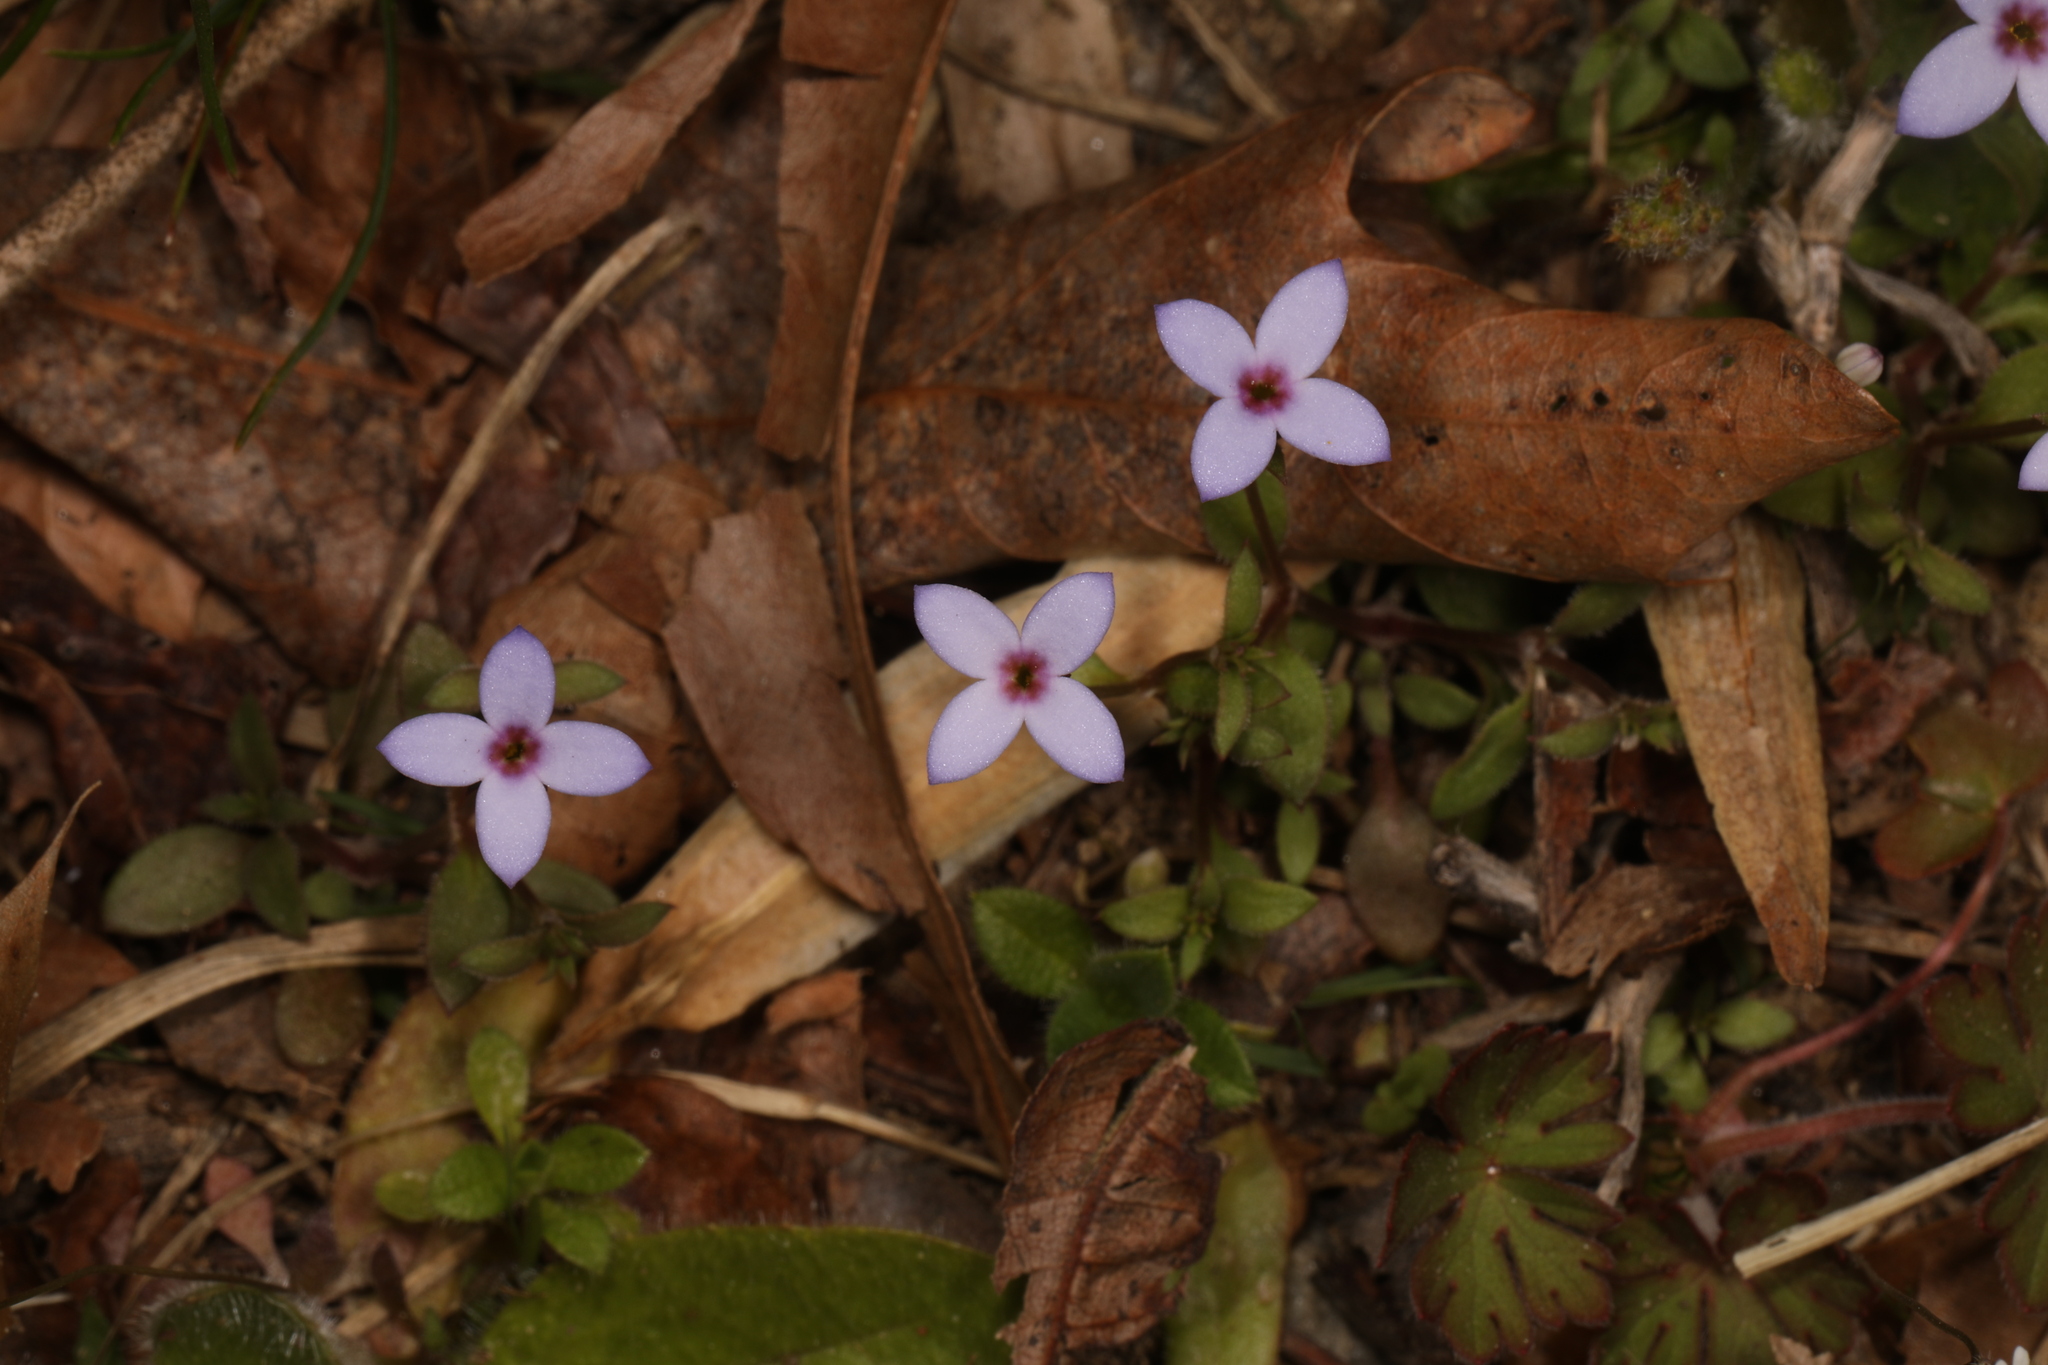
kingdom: Plantae
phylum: Tracheophyta
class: Magnoliopsida
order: Gentianales
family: Rubiaceae
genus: Houstonia
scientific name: Houstonia pusilla
